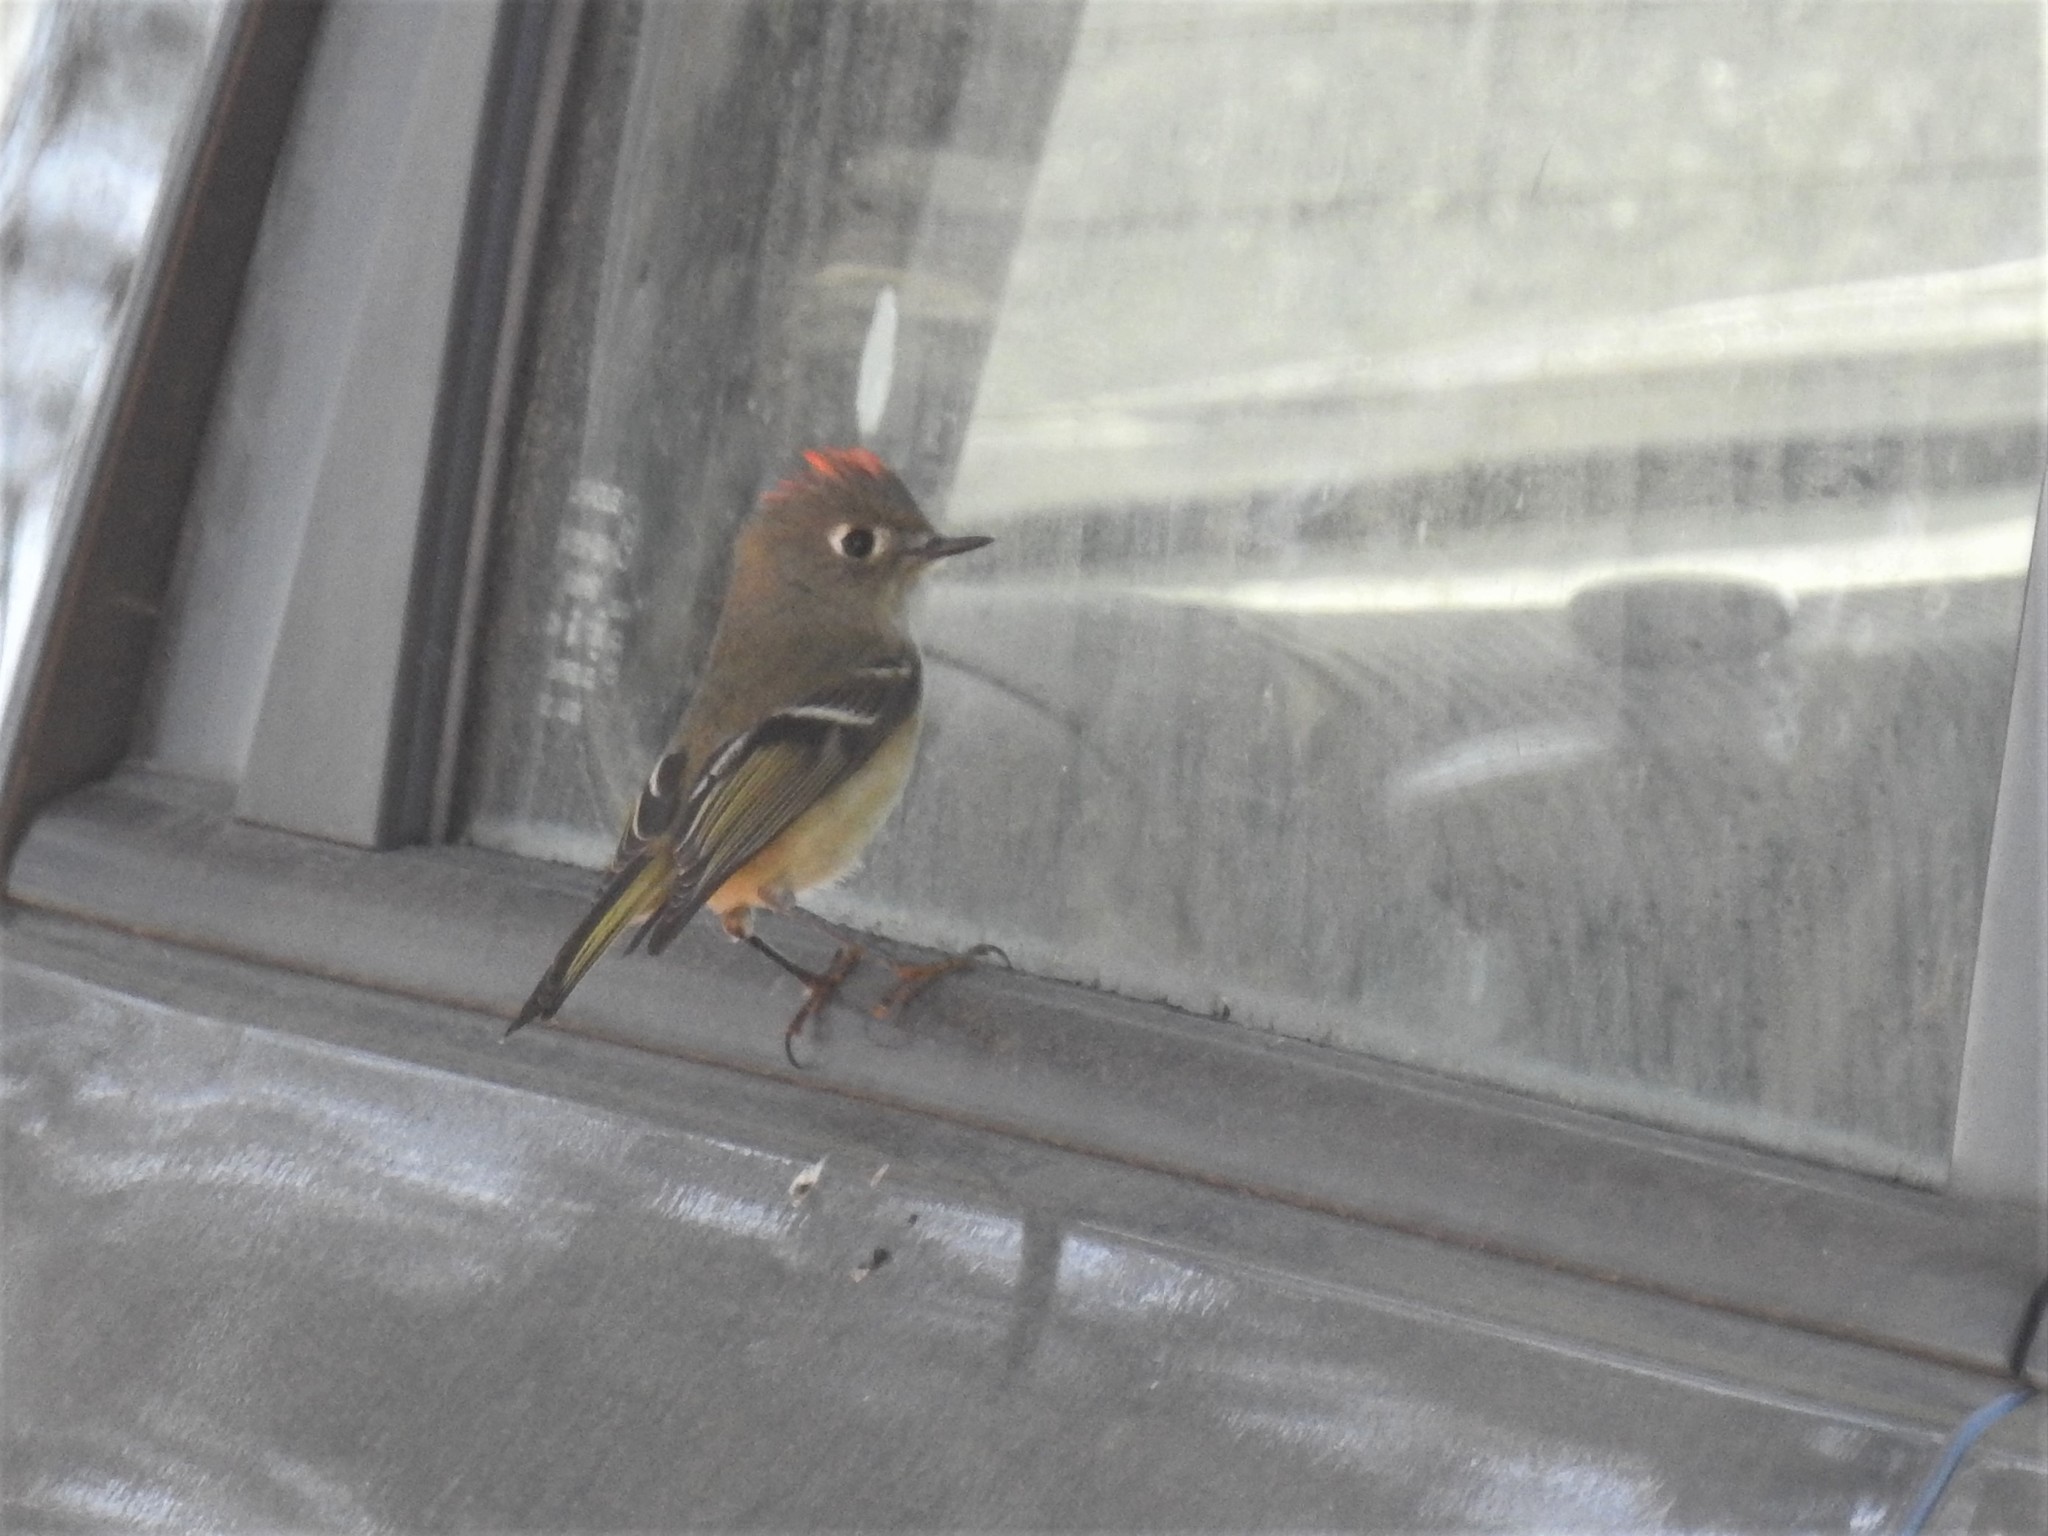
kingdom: Animalia
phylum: Chordata
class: Aves
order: Passeriformes
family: Regulidae
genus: Regulus
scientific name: Regulus calendula
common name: Ruby-crowned kinglet
